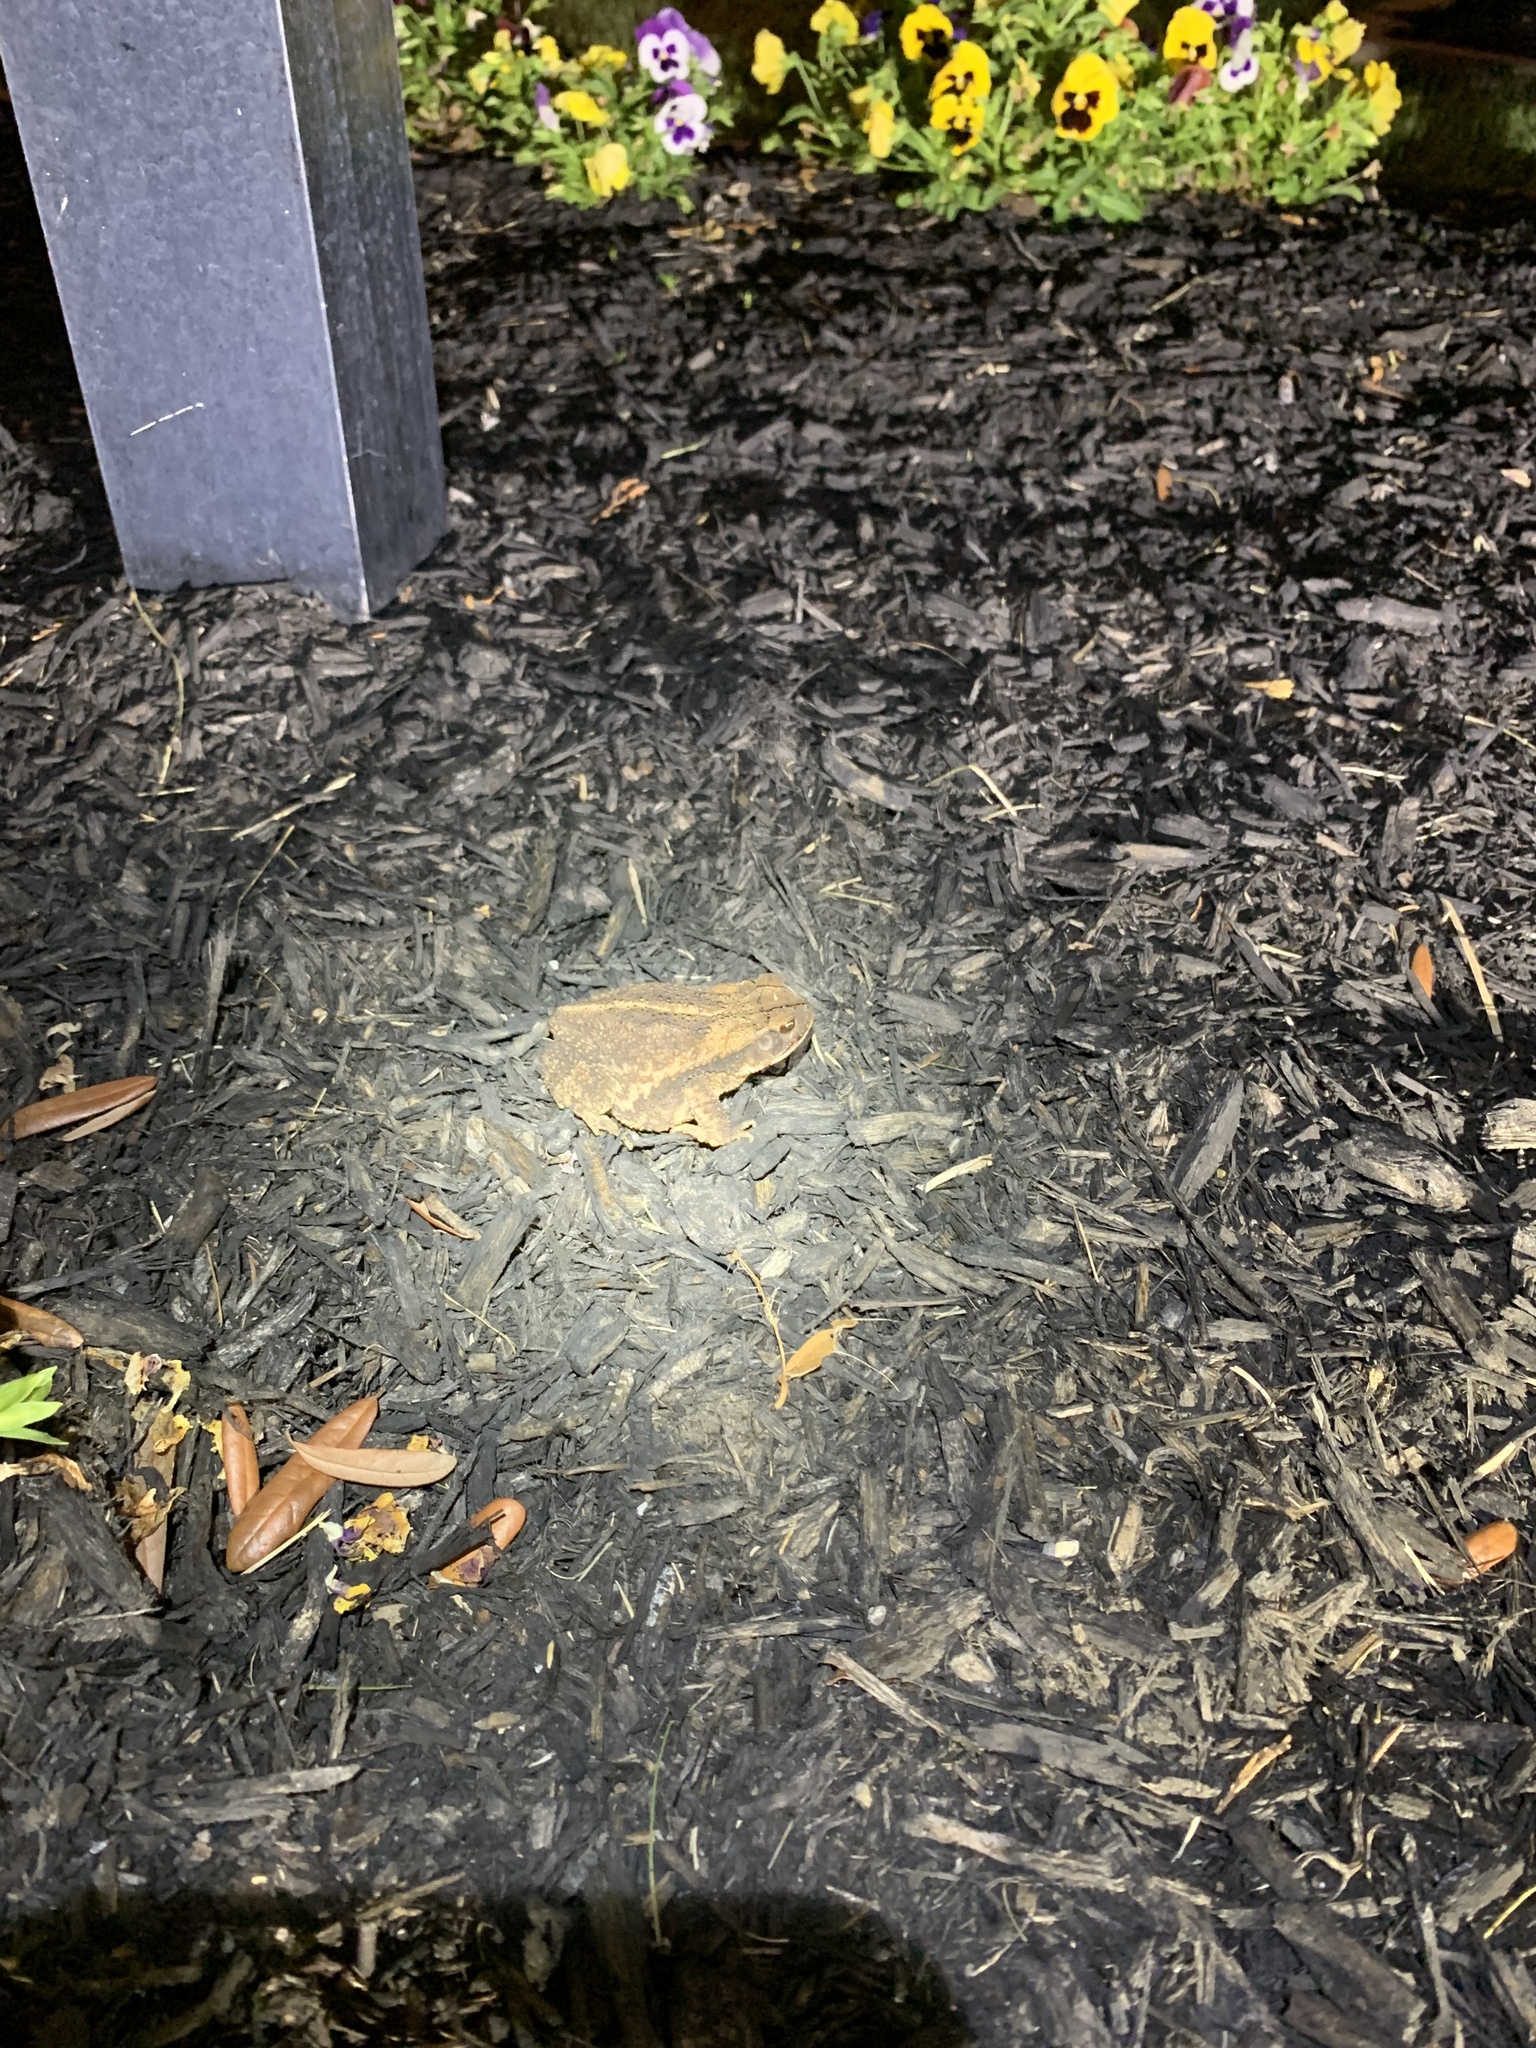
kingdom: Animalia
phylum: Chordata
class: Amphibia
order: Anura
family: Bufonidae
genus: Incilius
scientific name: Incilius nebulifer
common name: Gulf coast toad
